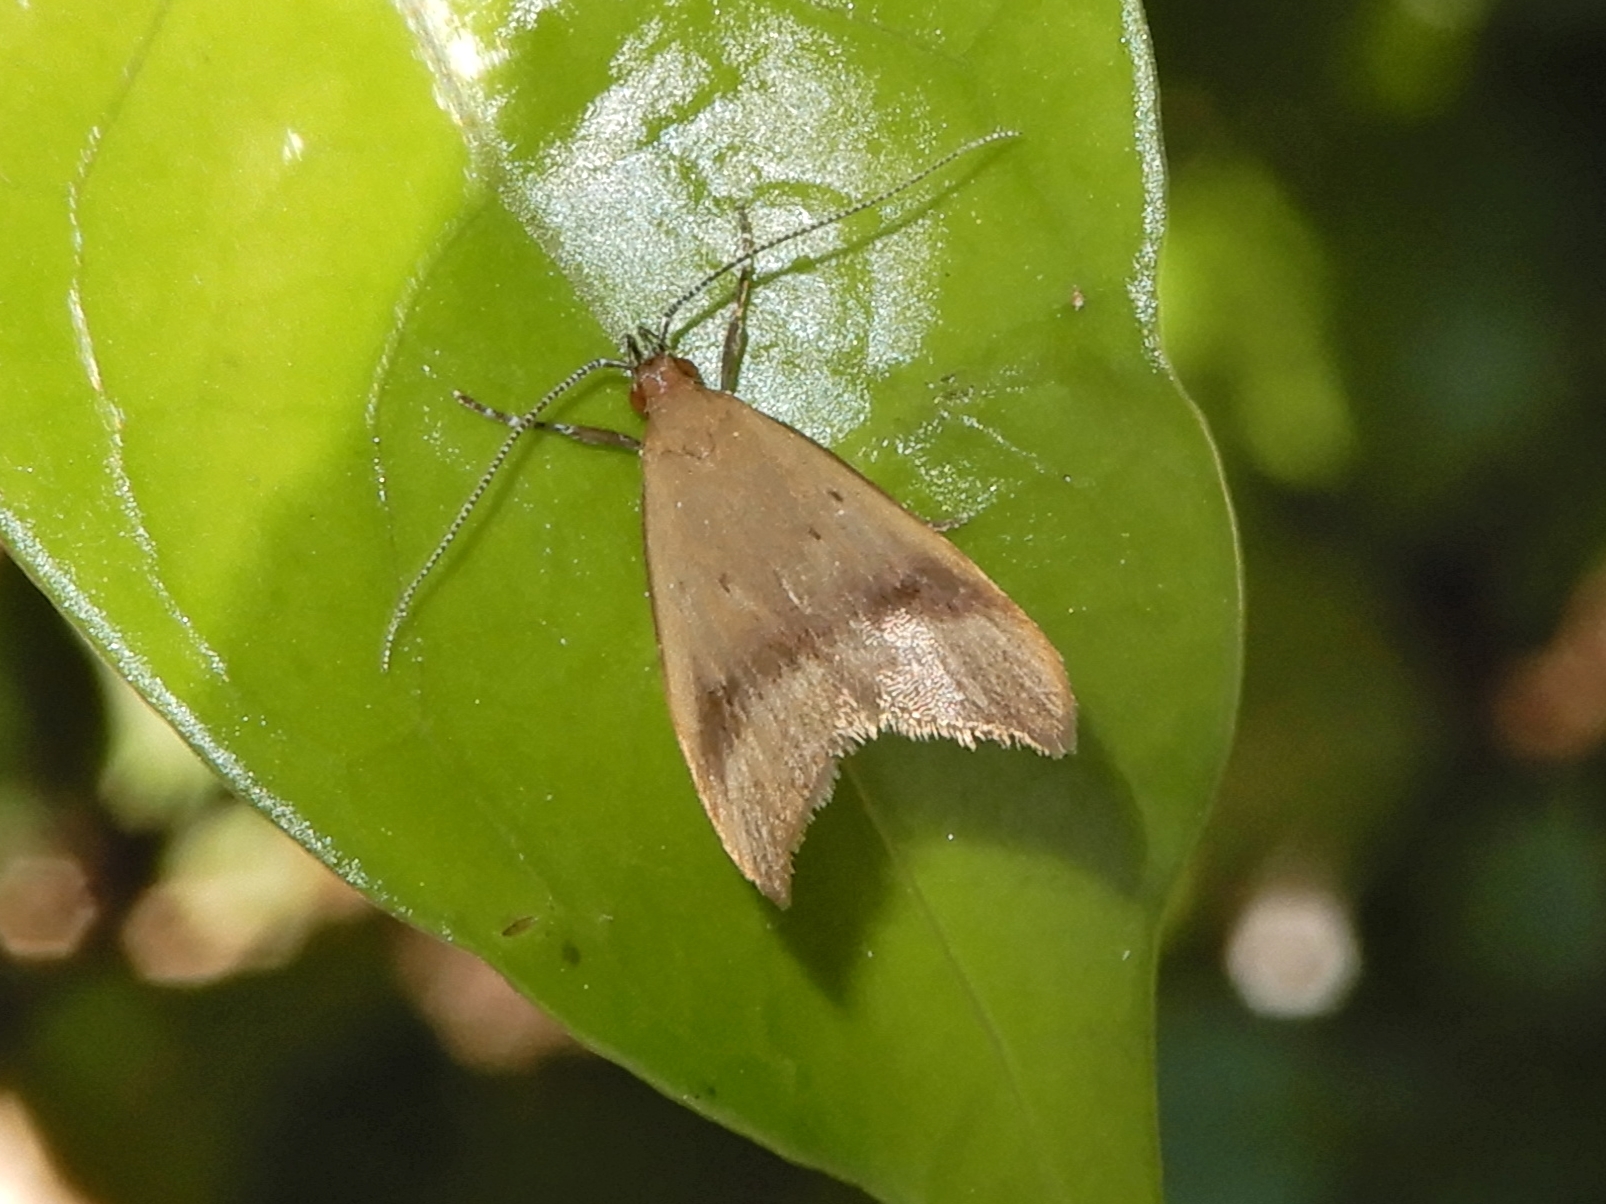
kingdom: Animalia
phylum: Arthropoda
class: Insecta
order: Lepidoptera
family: Oecophoridae
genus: Gymnobathra
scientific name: Gymnobathra hyetodes
